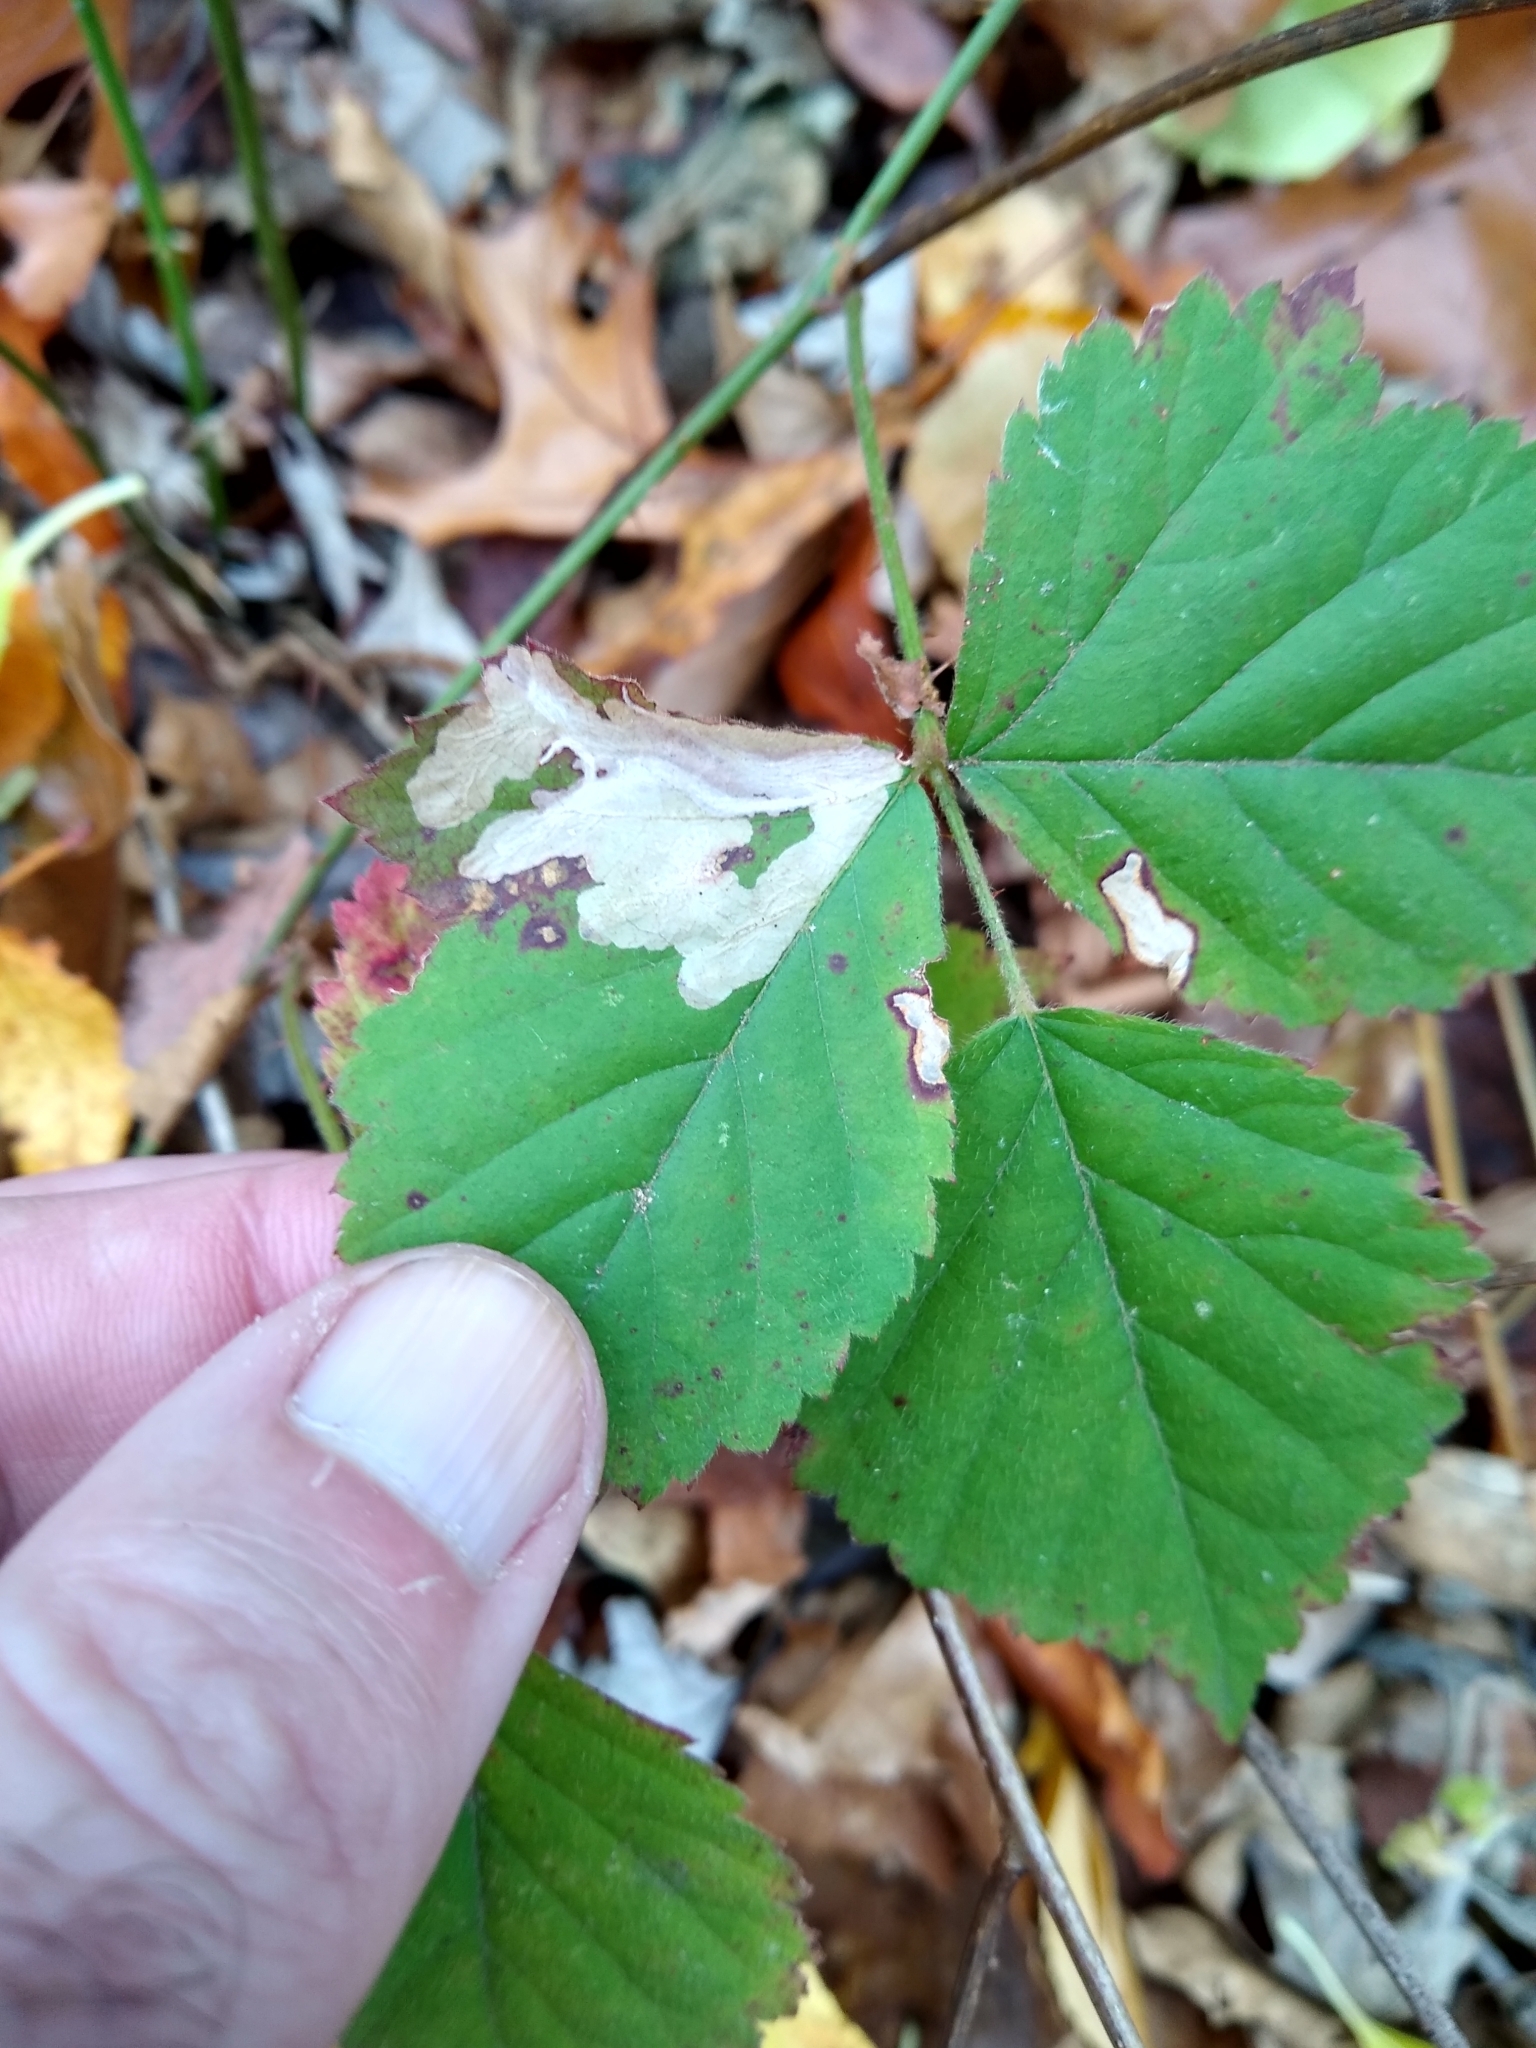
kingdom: Animalia
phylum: Arthropoda
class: Insecta
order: Lepidoptera
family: Tischeriidae
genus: Coptotriche
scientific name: Coptotriche aenea
